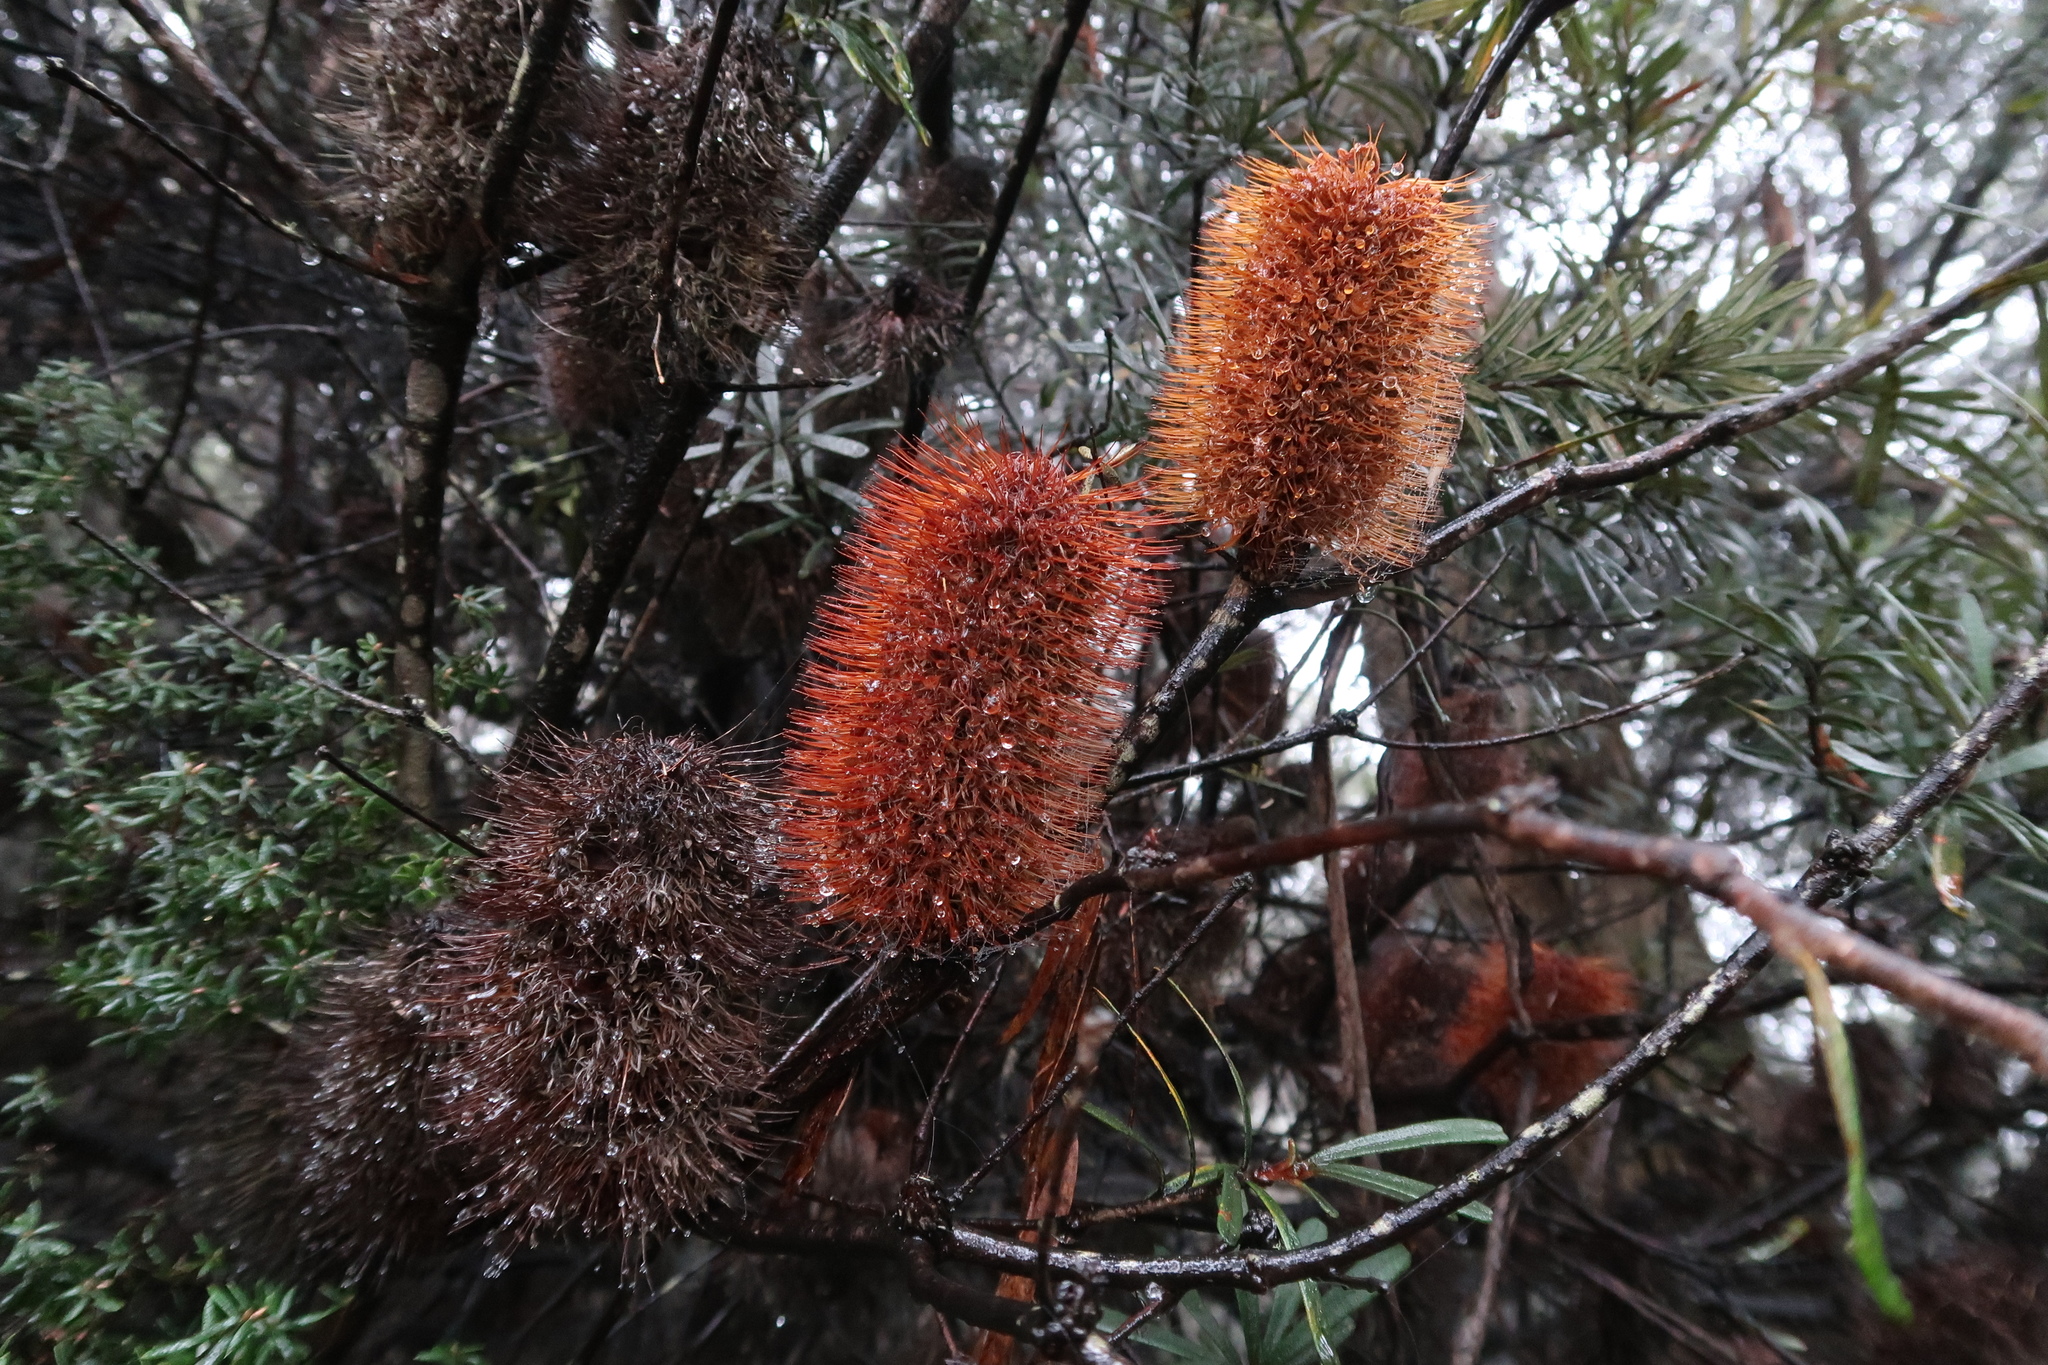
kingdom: Plantae
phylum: Tracheophyta
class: Magnoliopsida
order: Proteales
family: Proteaceae
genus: Banksia
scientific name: Banksia marginata
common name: Silver banksia
